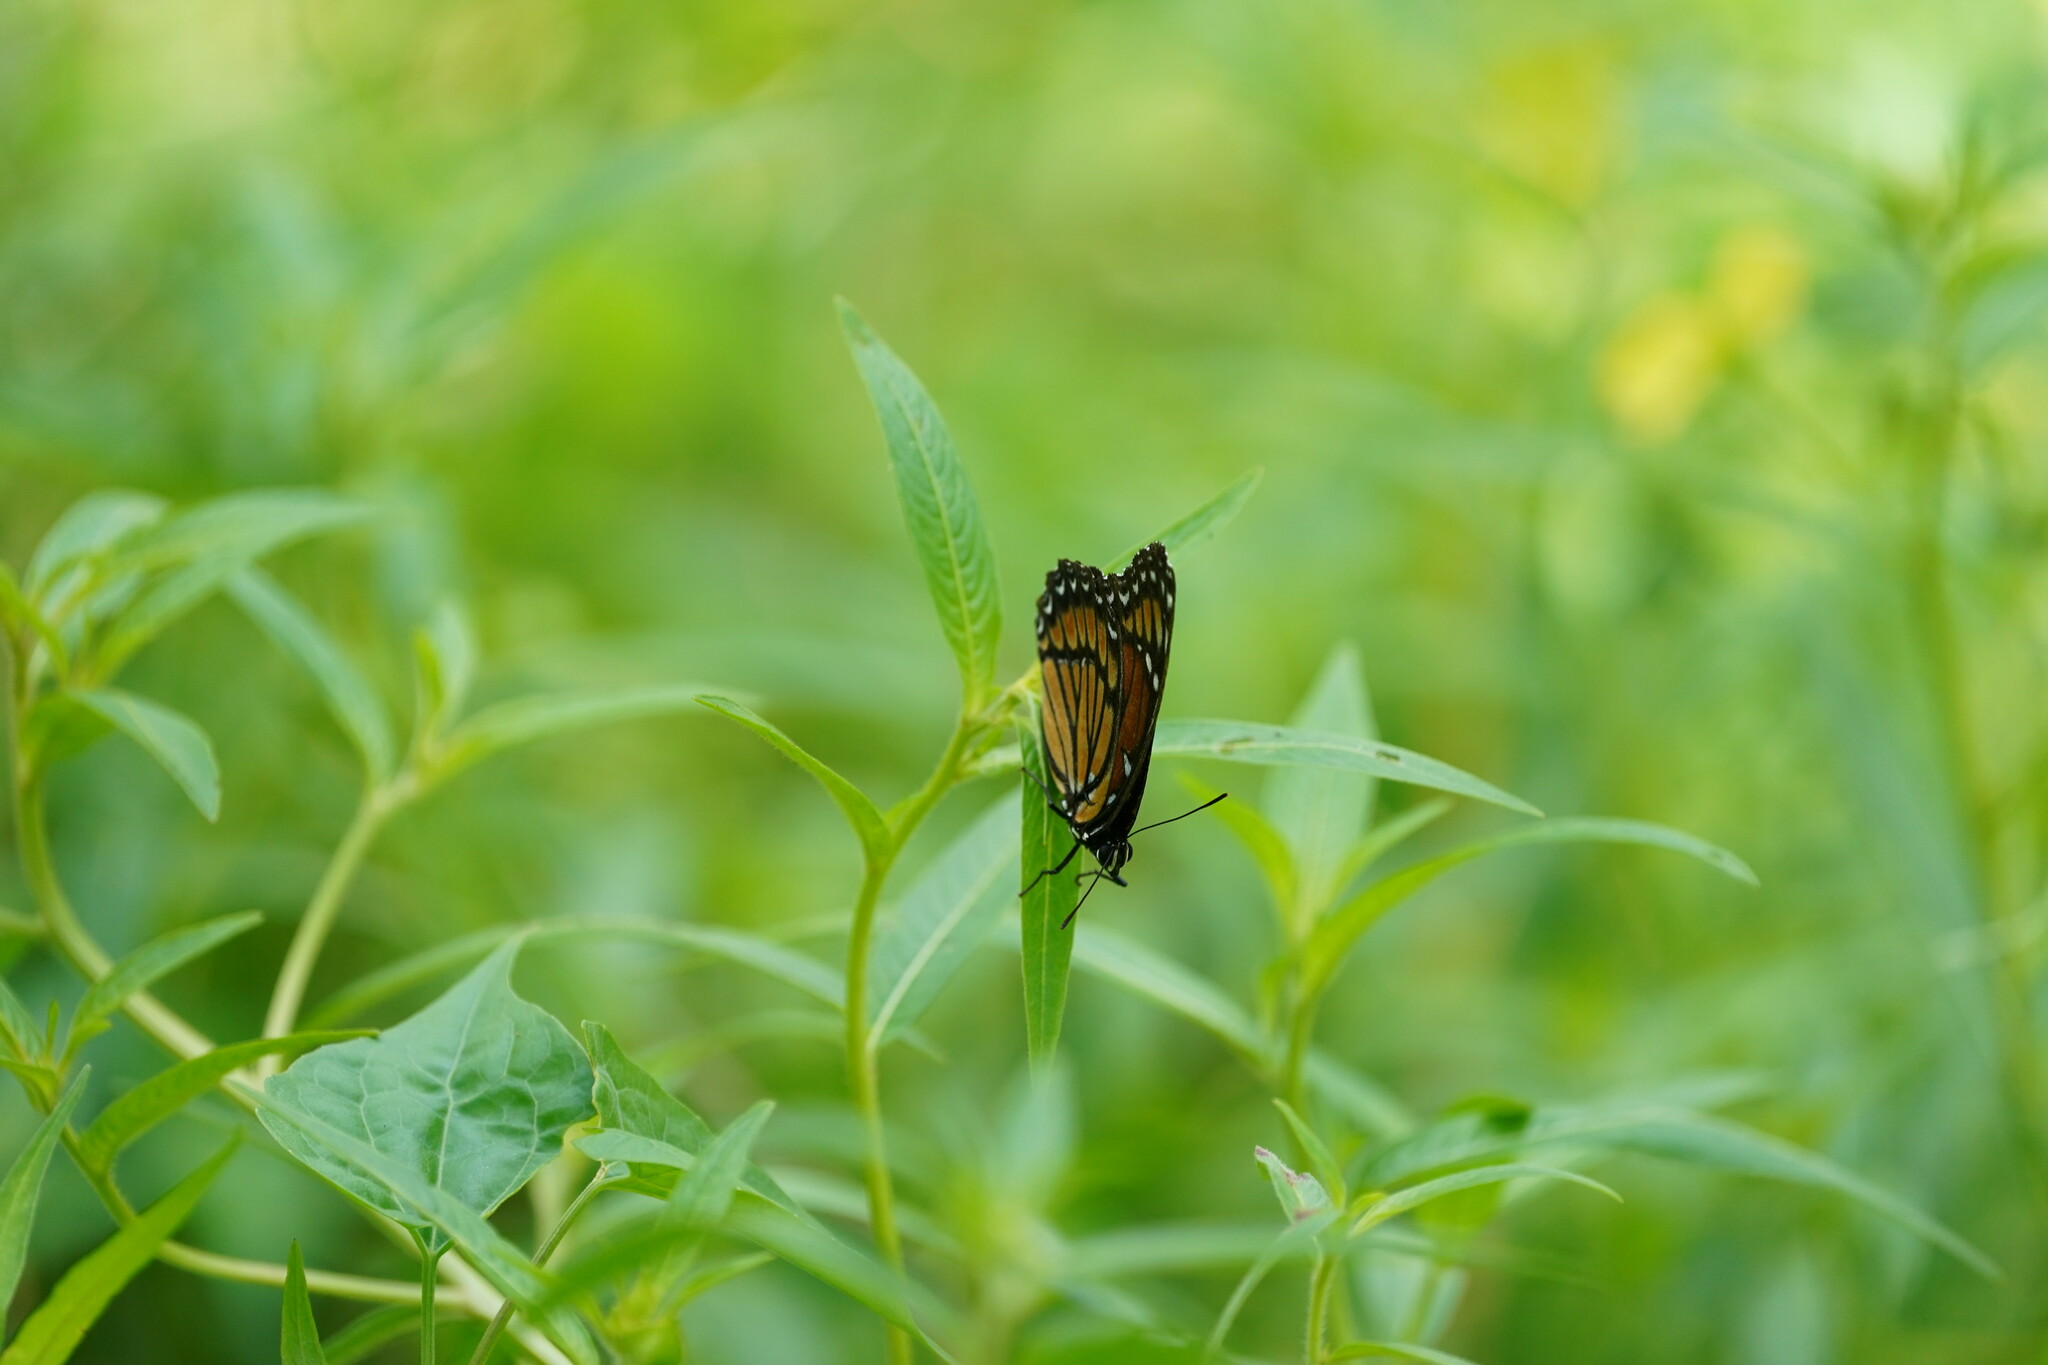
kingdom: Animalia
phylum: Arthropoda
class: Insecta
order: Lepidoptera
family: Nymphalidae
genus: Limenitis
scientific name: Limenitis archippus
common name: Viceroy
